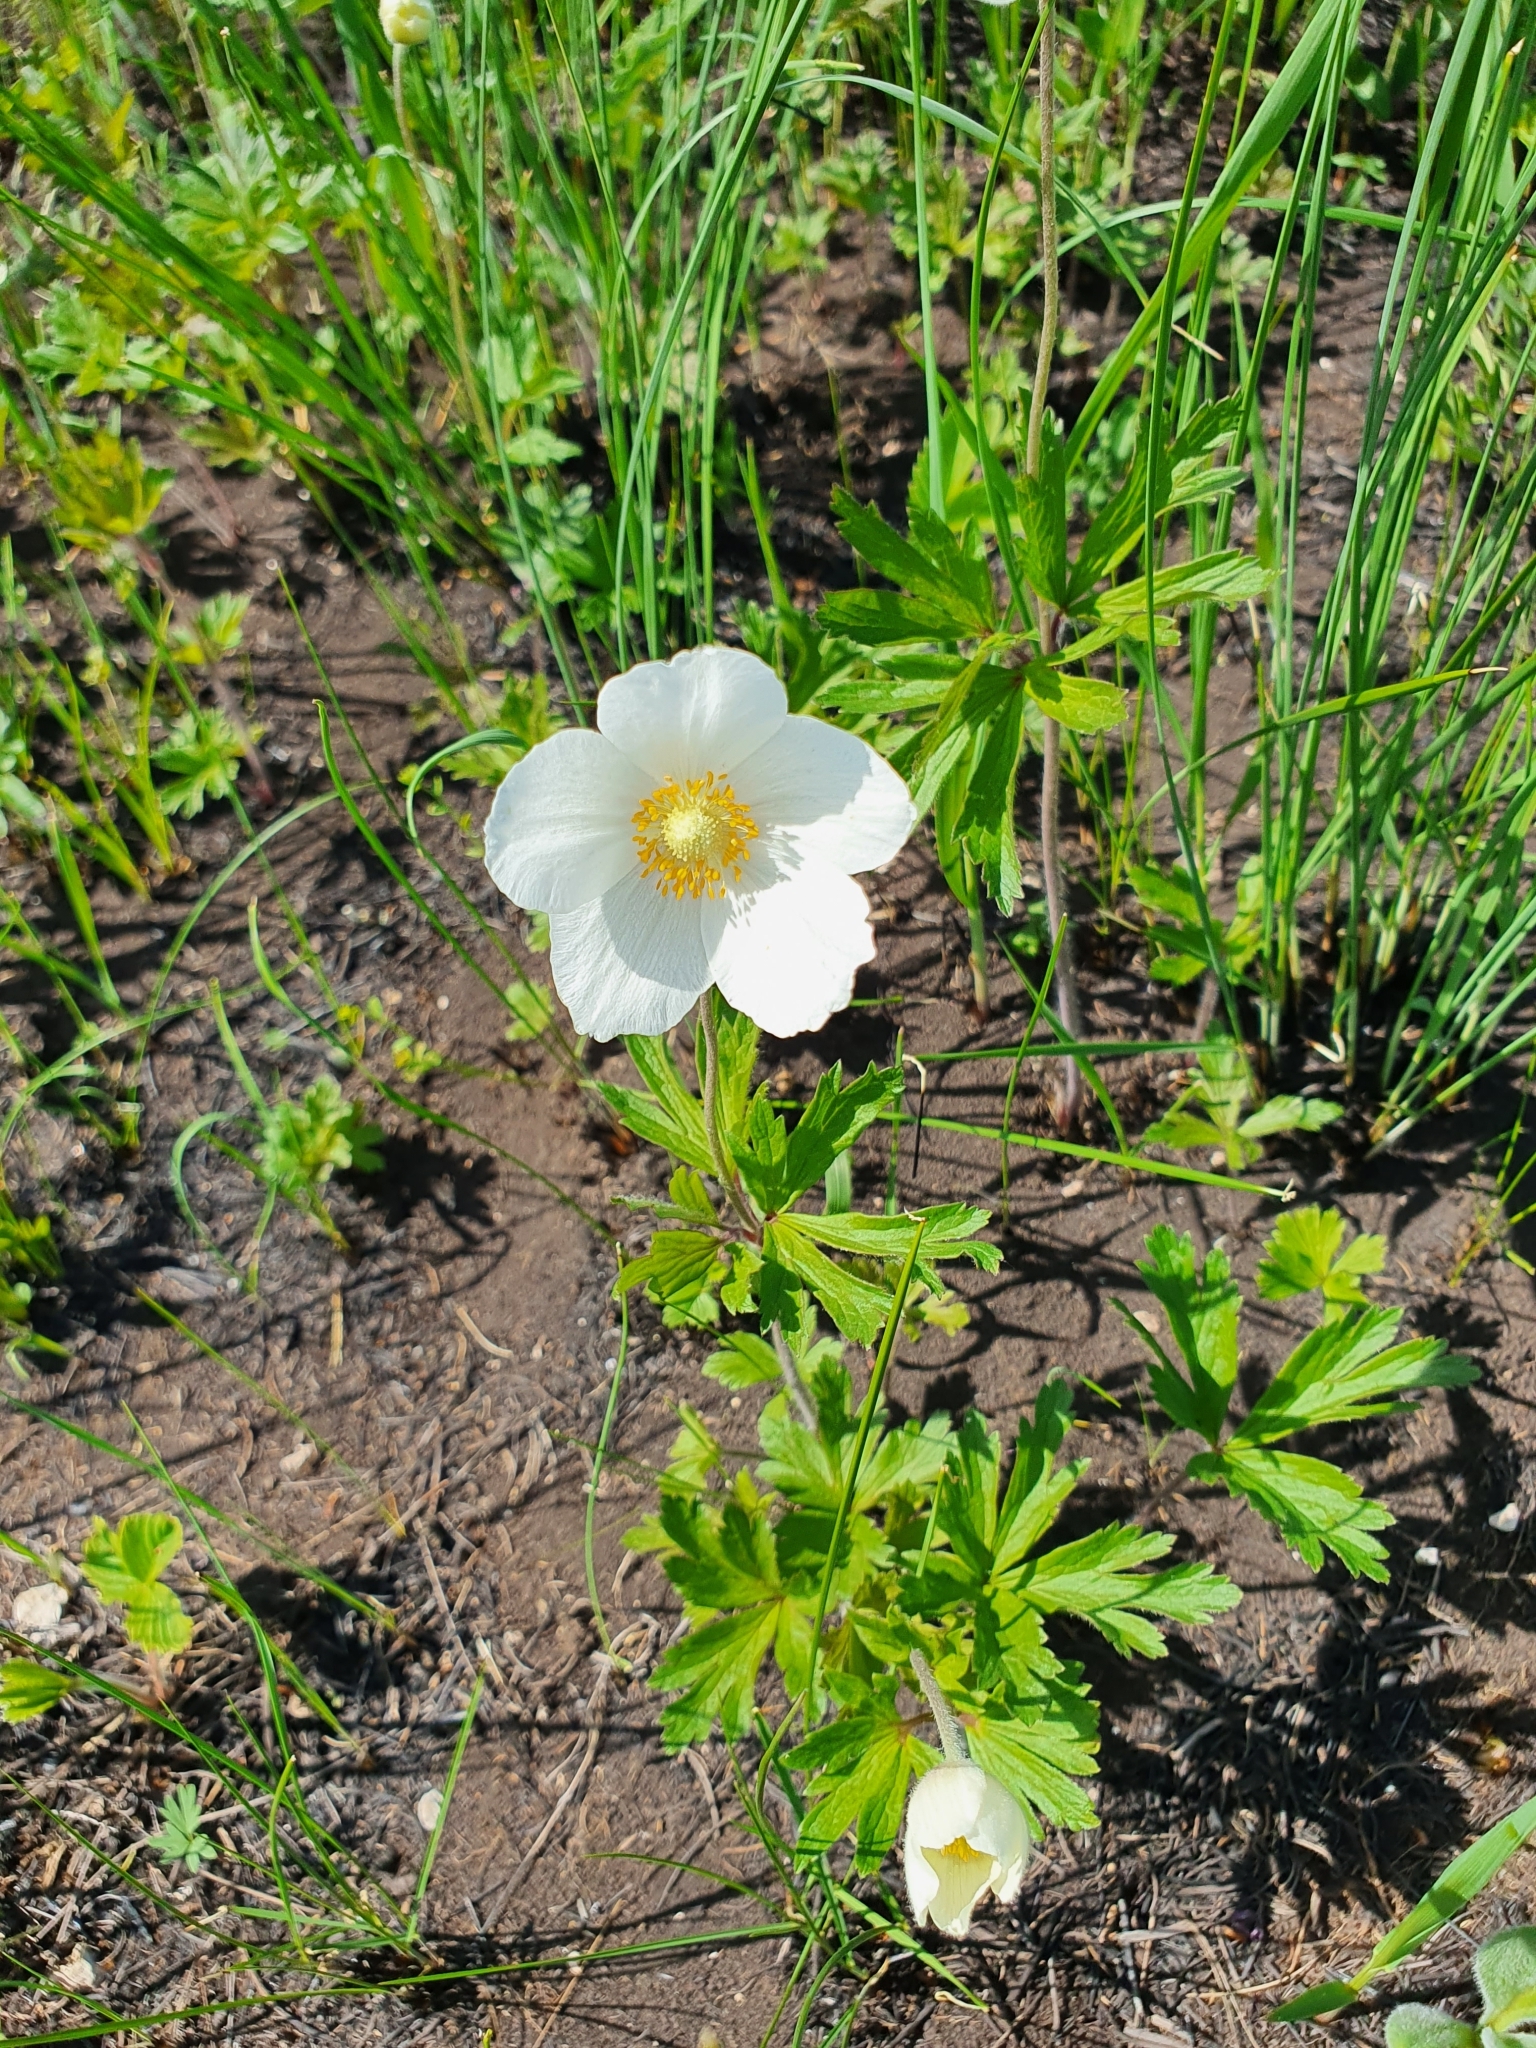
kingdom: Plantae
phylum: Tracheophyta
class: Magnoliopsida
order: Ranunculales
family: Ranunculaceae
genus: Anemone
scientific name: Anemone sylvestris
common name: Snowdrop anemone
